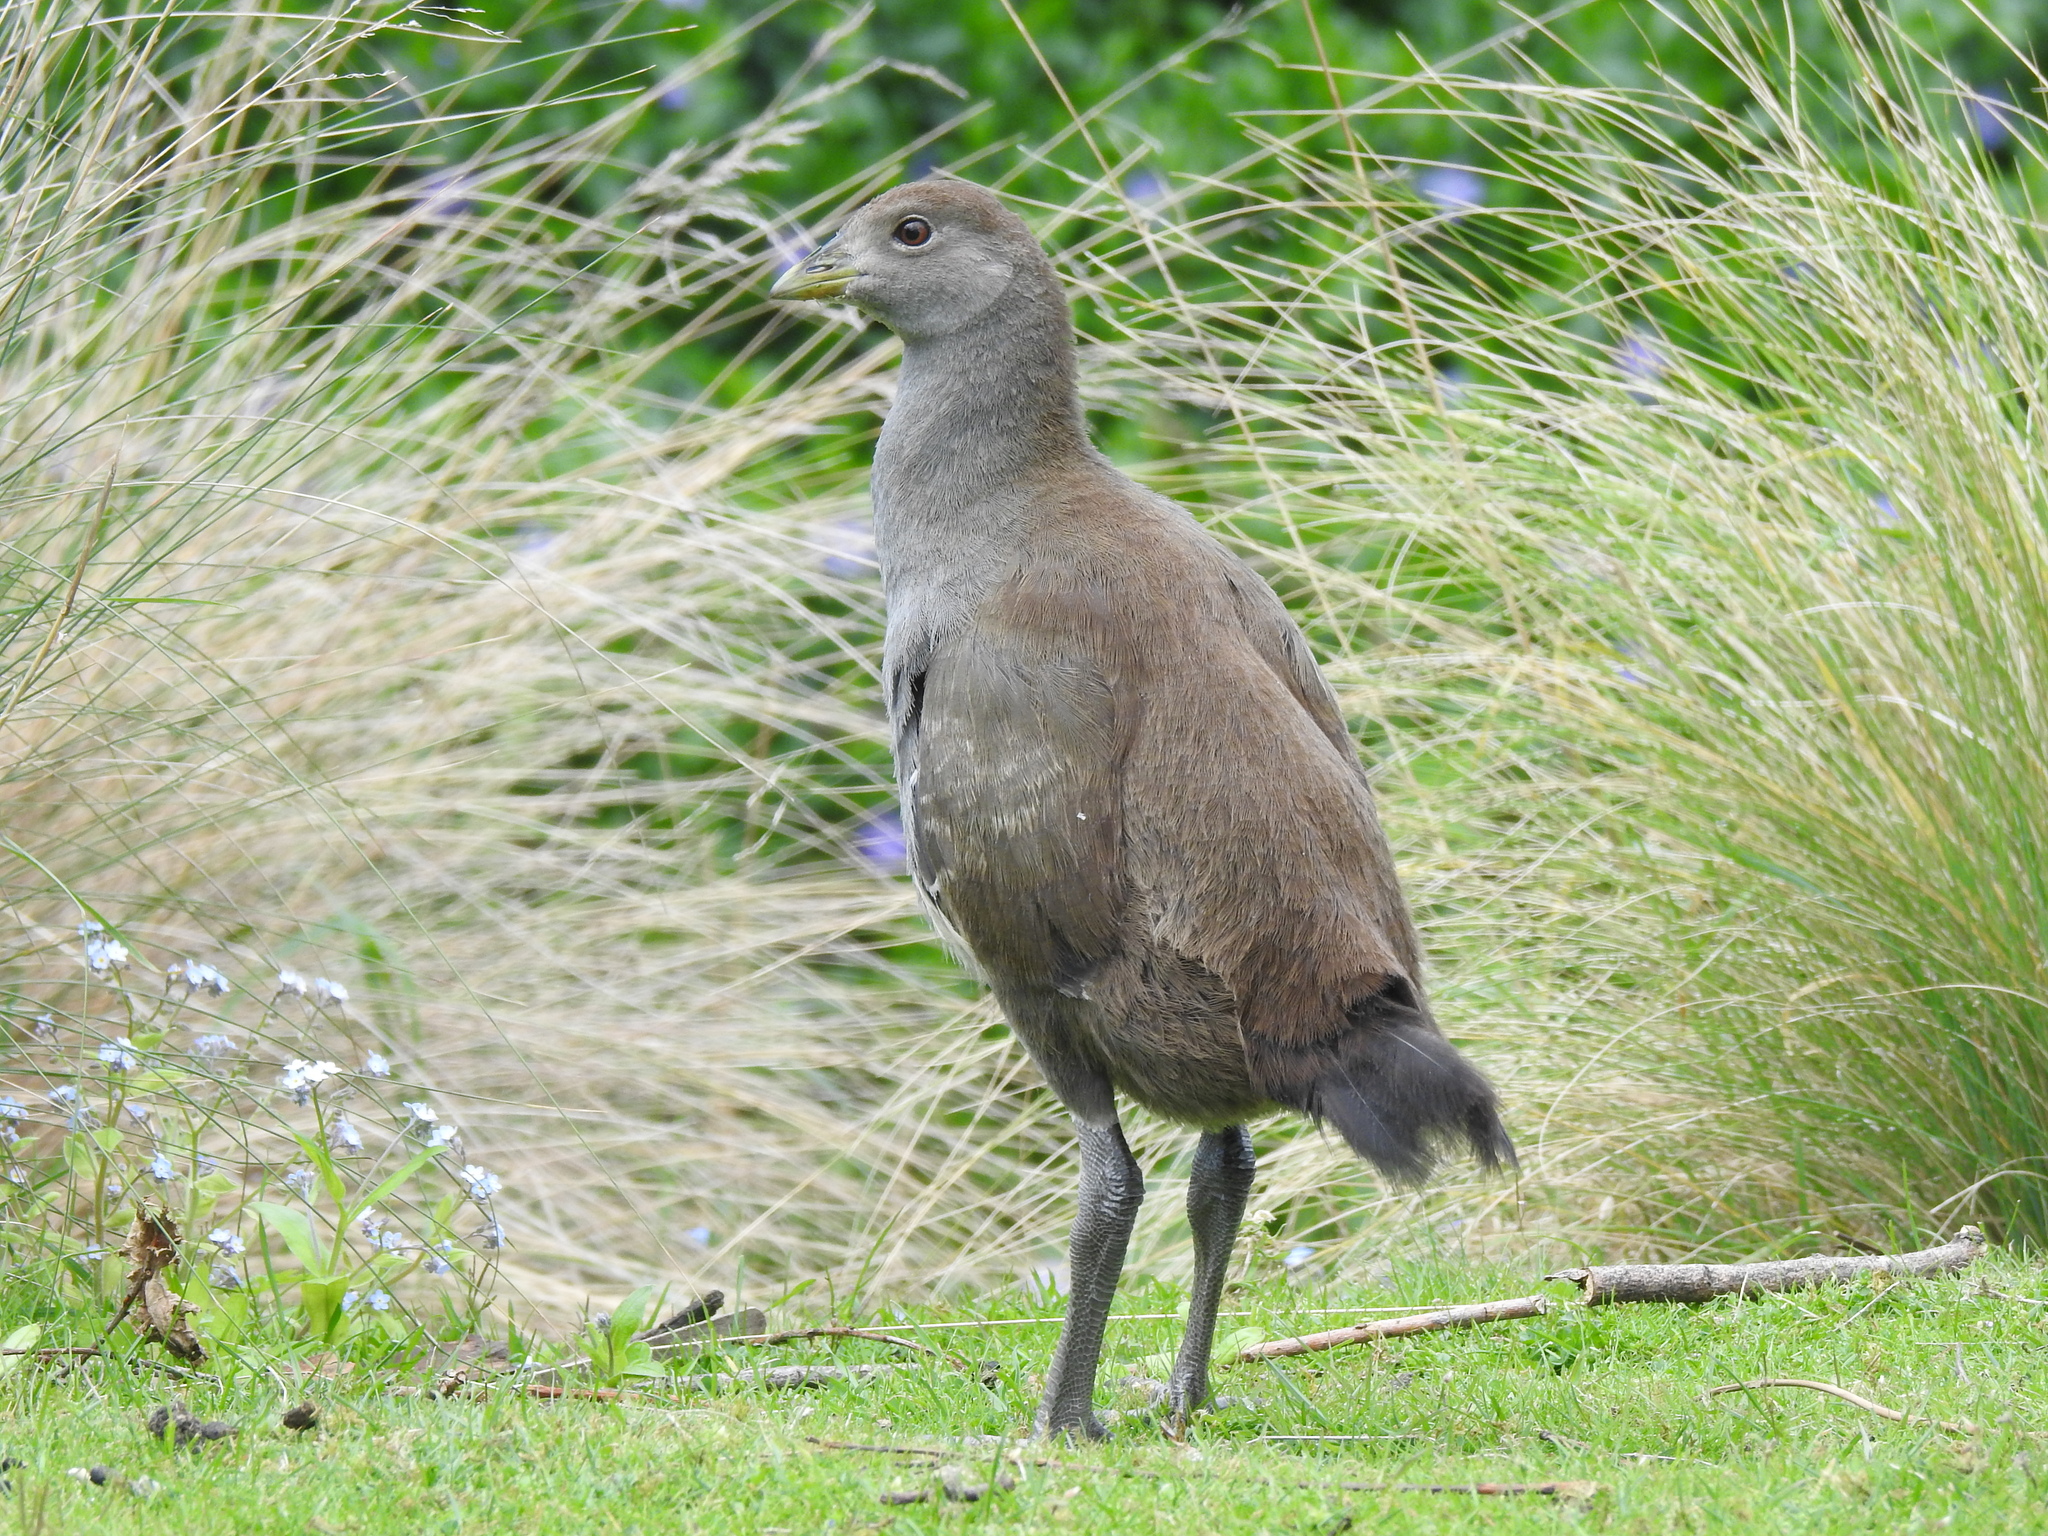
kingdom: Animalia
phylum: Chordata
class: Aves
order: Gruiformes
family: Rallidae
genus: Gallinula
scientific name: Gallinula mortierii
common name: Tasmanian nativehen
